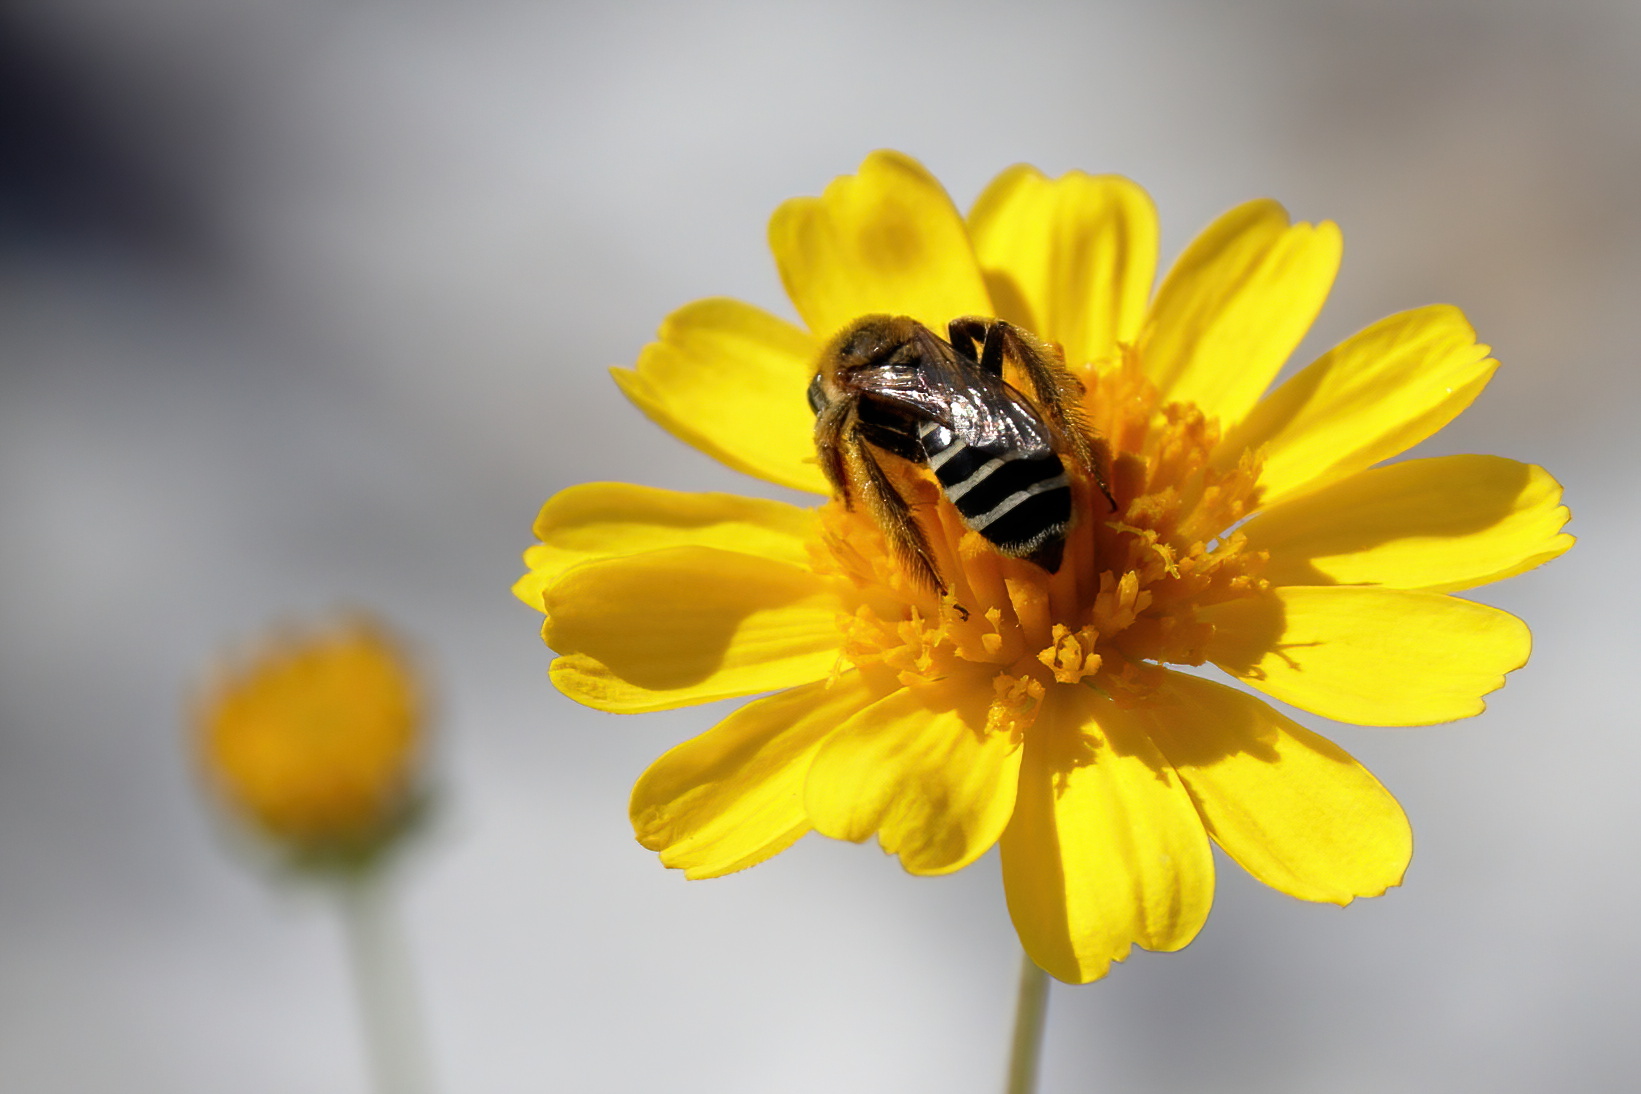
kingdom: Animalia
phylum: Arthropoda
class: Insecta
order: Hymenoptera
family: Melittidae
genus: Hesperapis
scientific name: Hesperapis oraria
